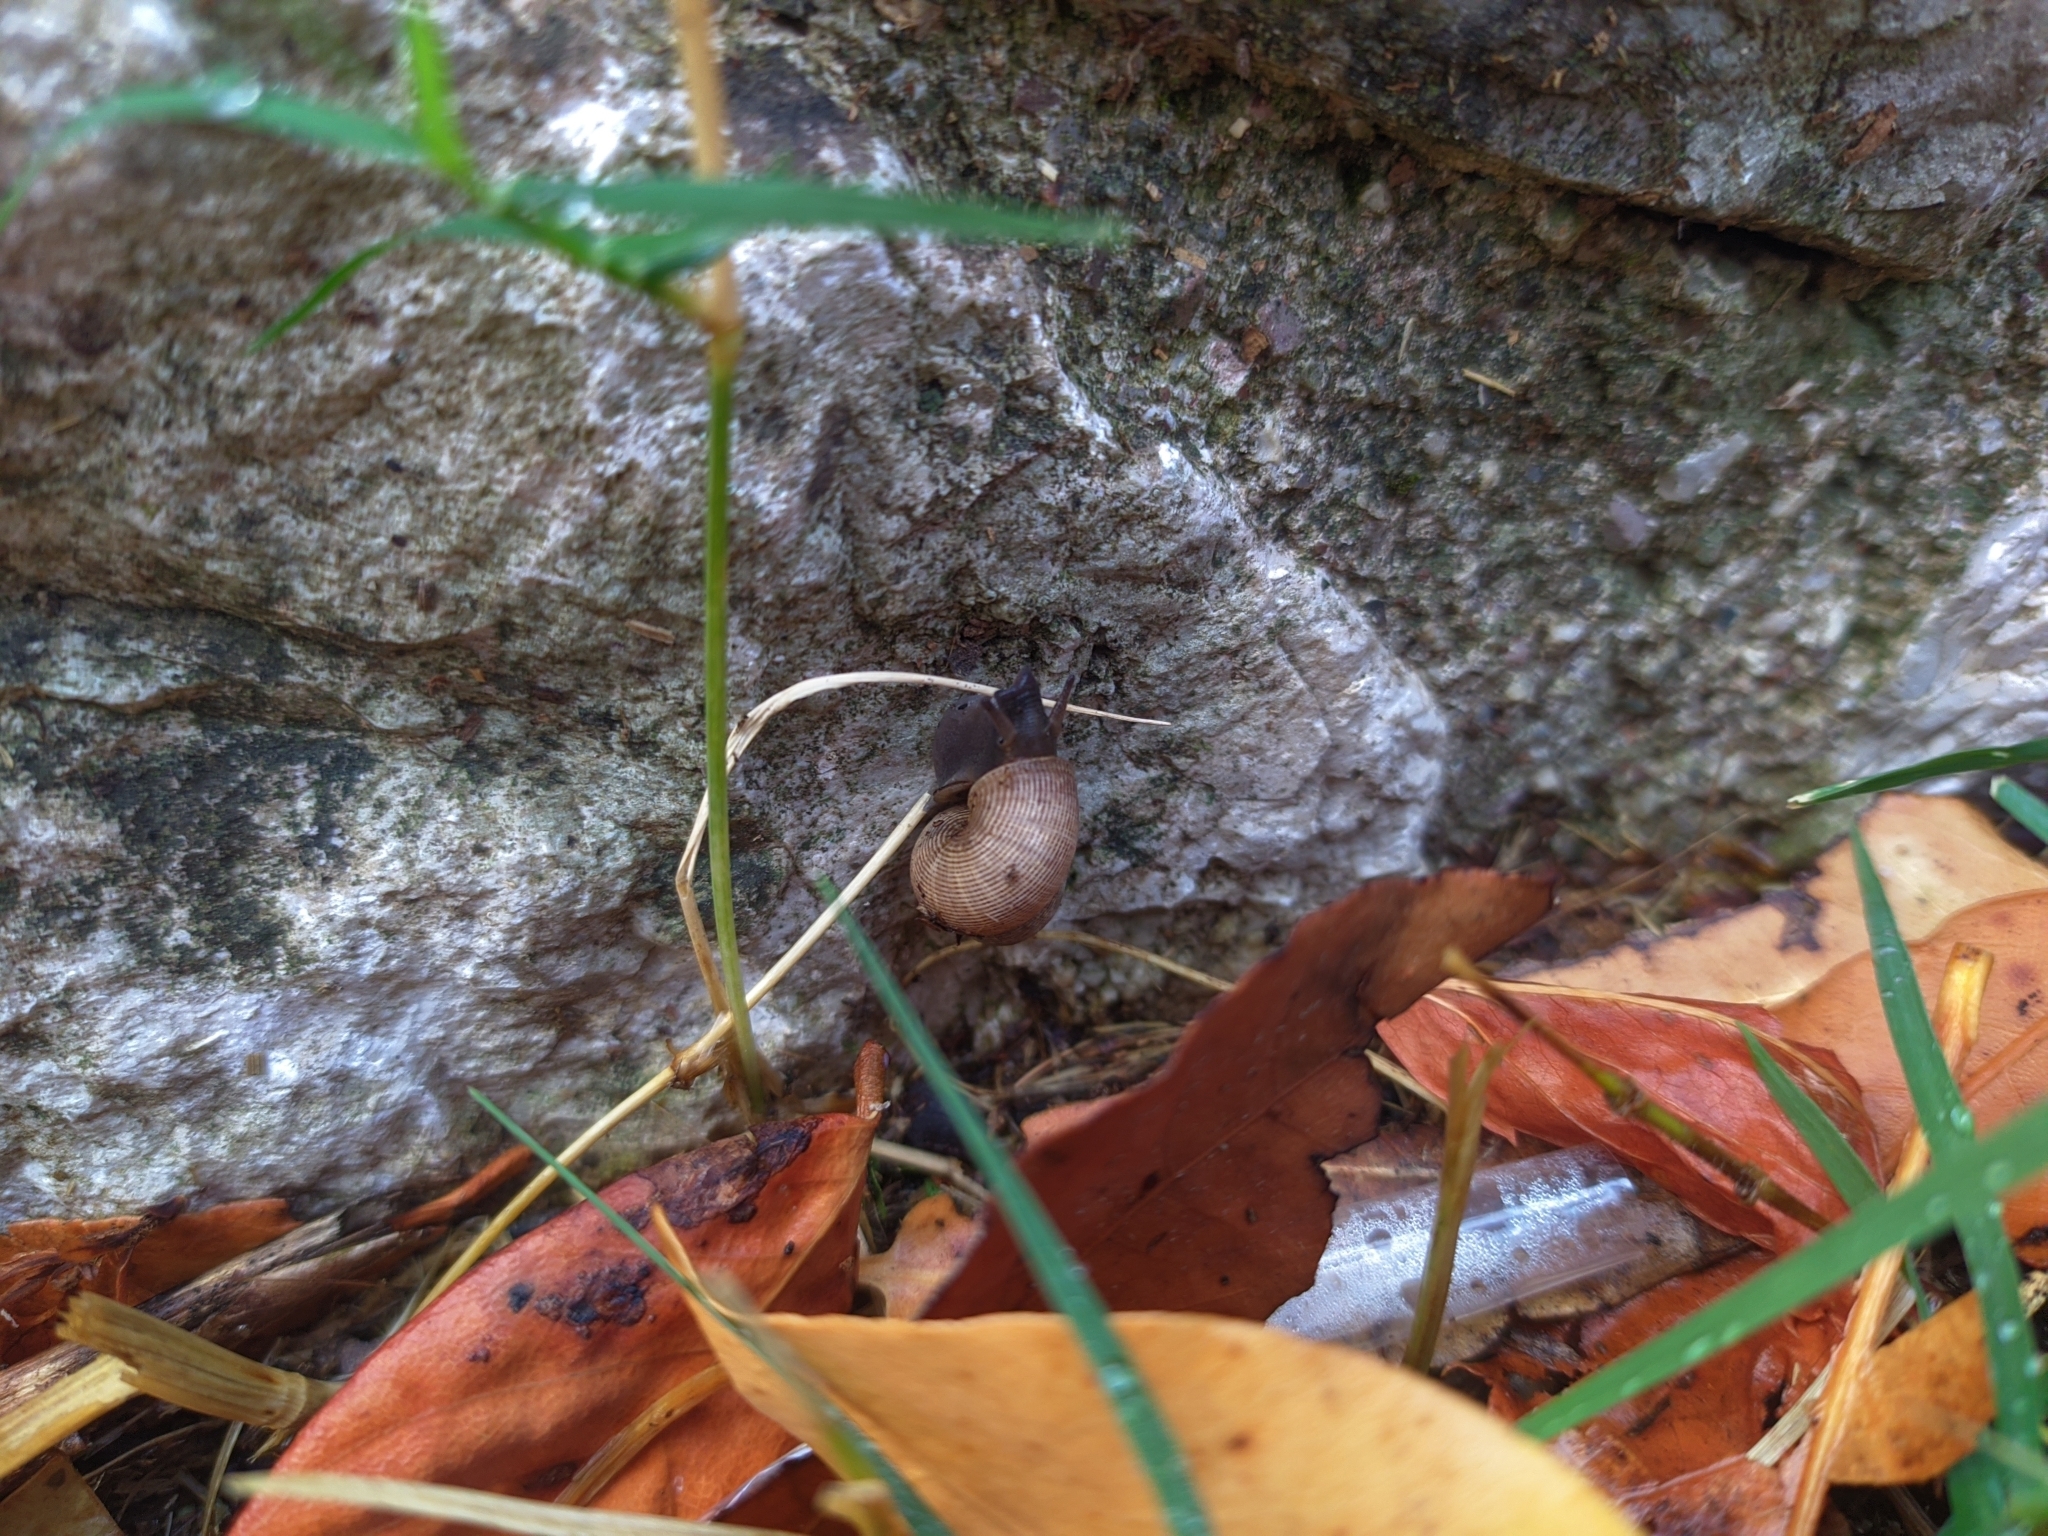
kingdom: Animalia
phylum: Mollusca
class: Gastropoda
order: Littorinimorpha
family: Pomatiidae
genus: Pomatias
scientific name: Pomatias elegans
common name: Red-mouthed snail
